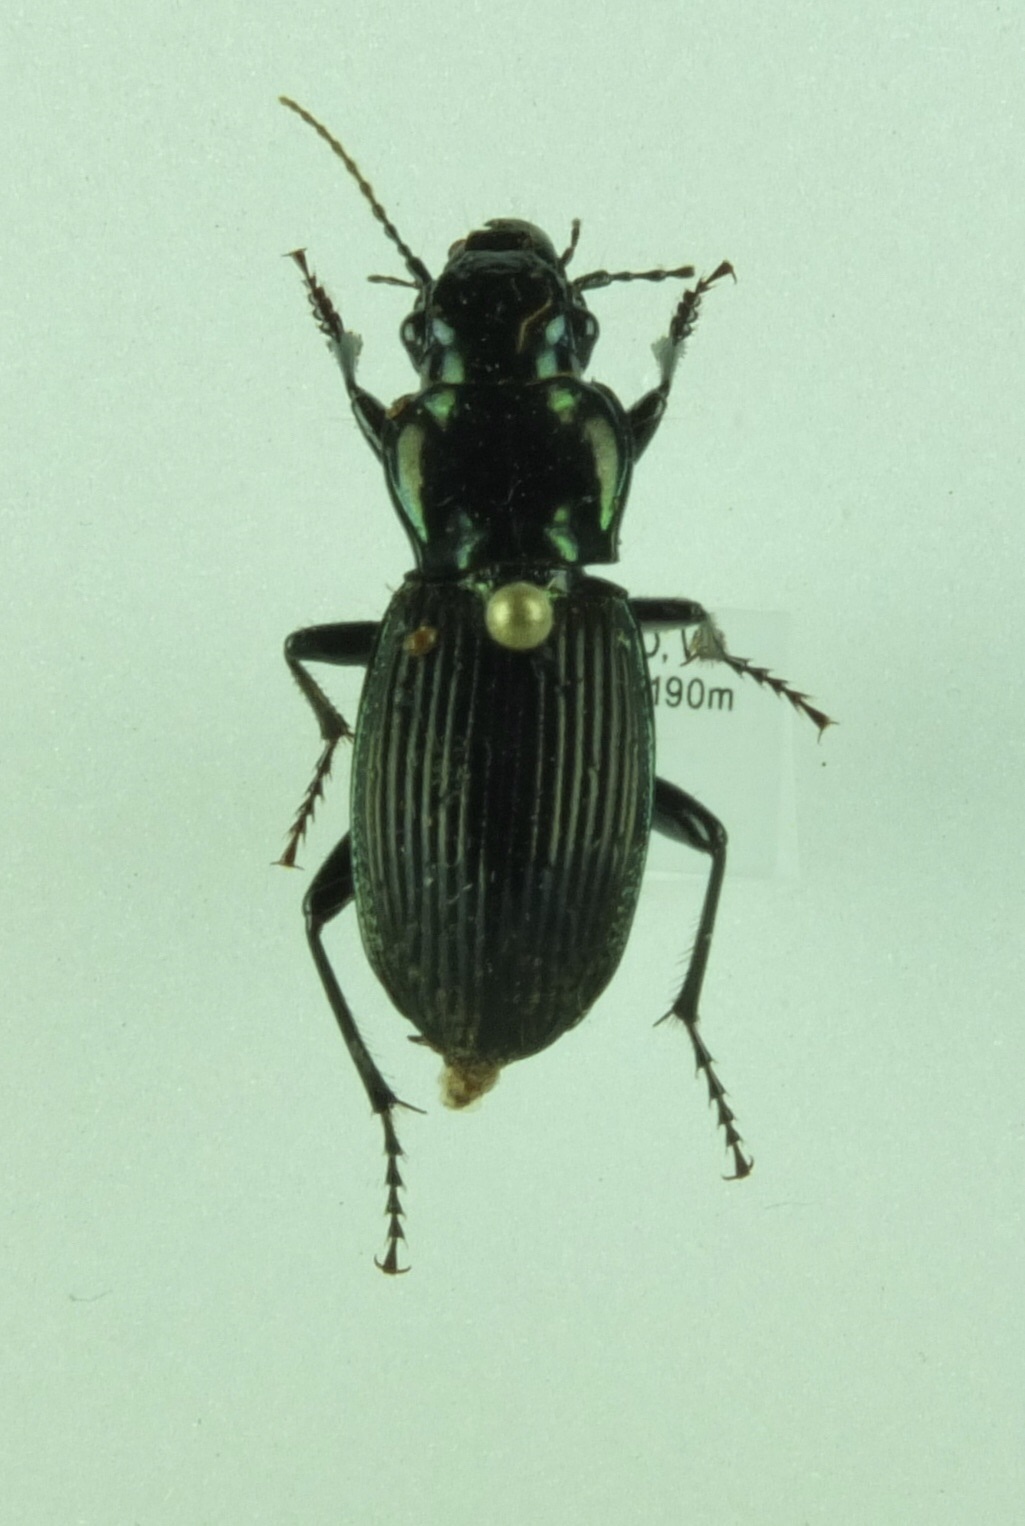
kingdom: Animalia
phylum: Arthropoda
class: Insecta
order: Coleoptera
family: Carabidae
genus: Megadromus
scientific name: Megadromus capito
